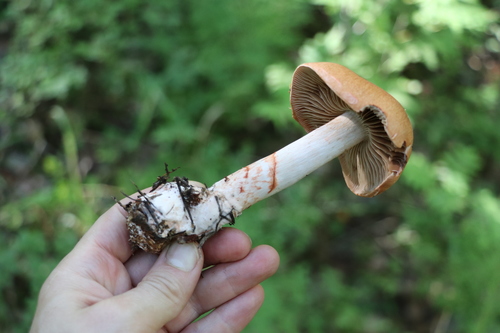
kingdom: Fungi
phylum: Basidiomycota
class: Agaricomycetes
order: Agaricales
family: Cortinariaceae
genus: Cortinarius
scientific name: Cortinarius armillatus
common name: Red banded webcap
